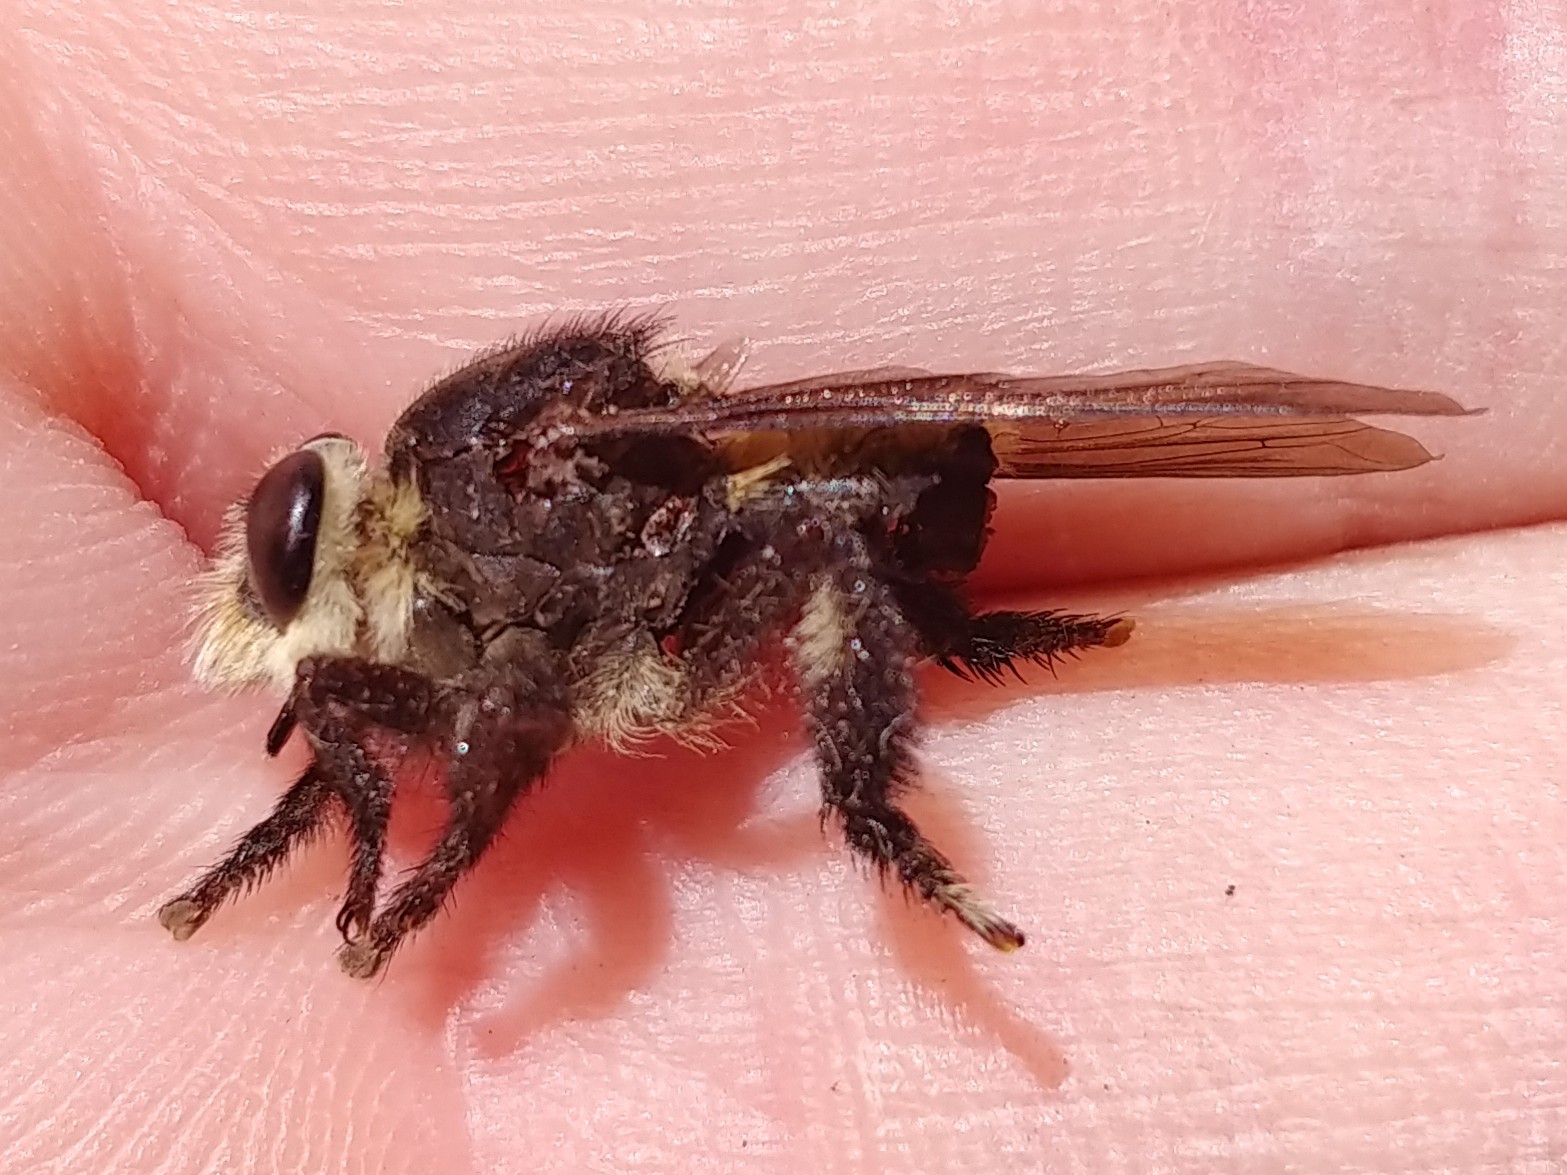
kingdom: Animalia
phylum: Arthropoda
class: Insecta
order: Diptera
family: Asilidae
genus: Mallophora
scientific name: Mallophora fautrix
